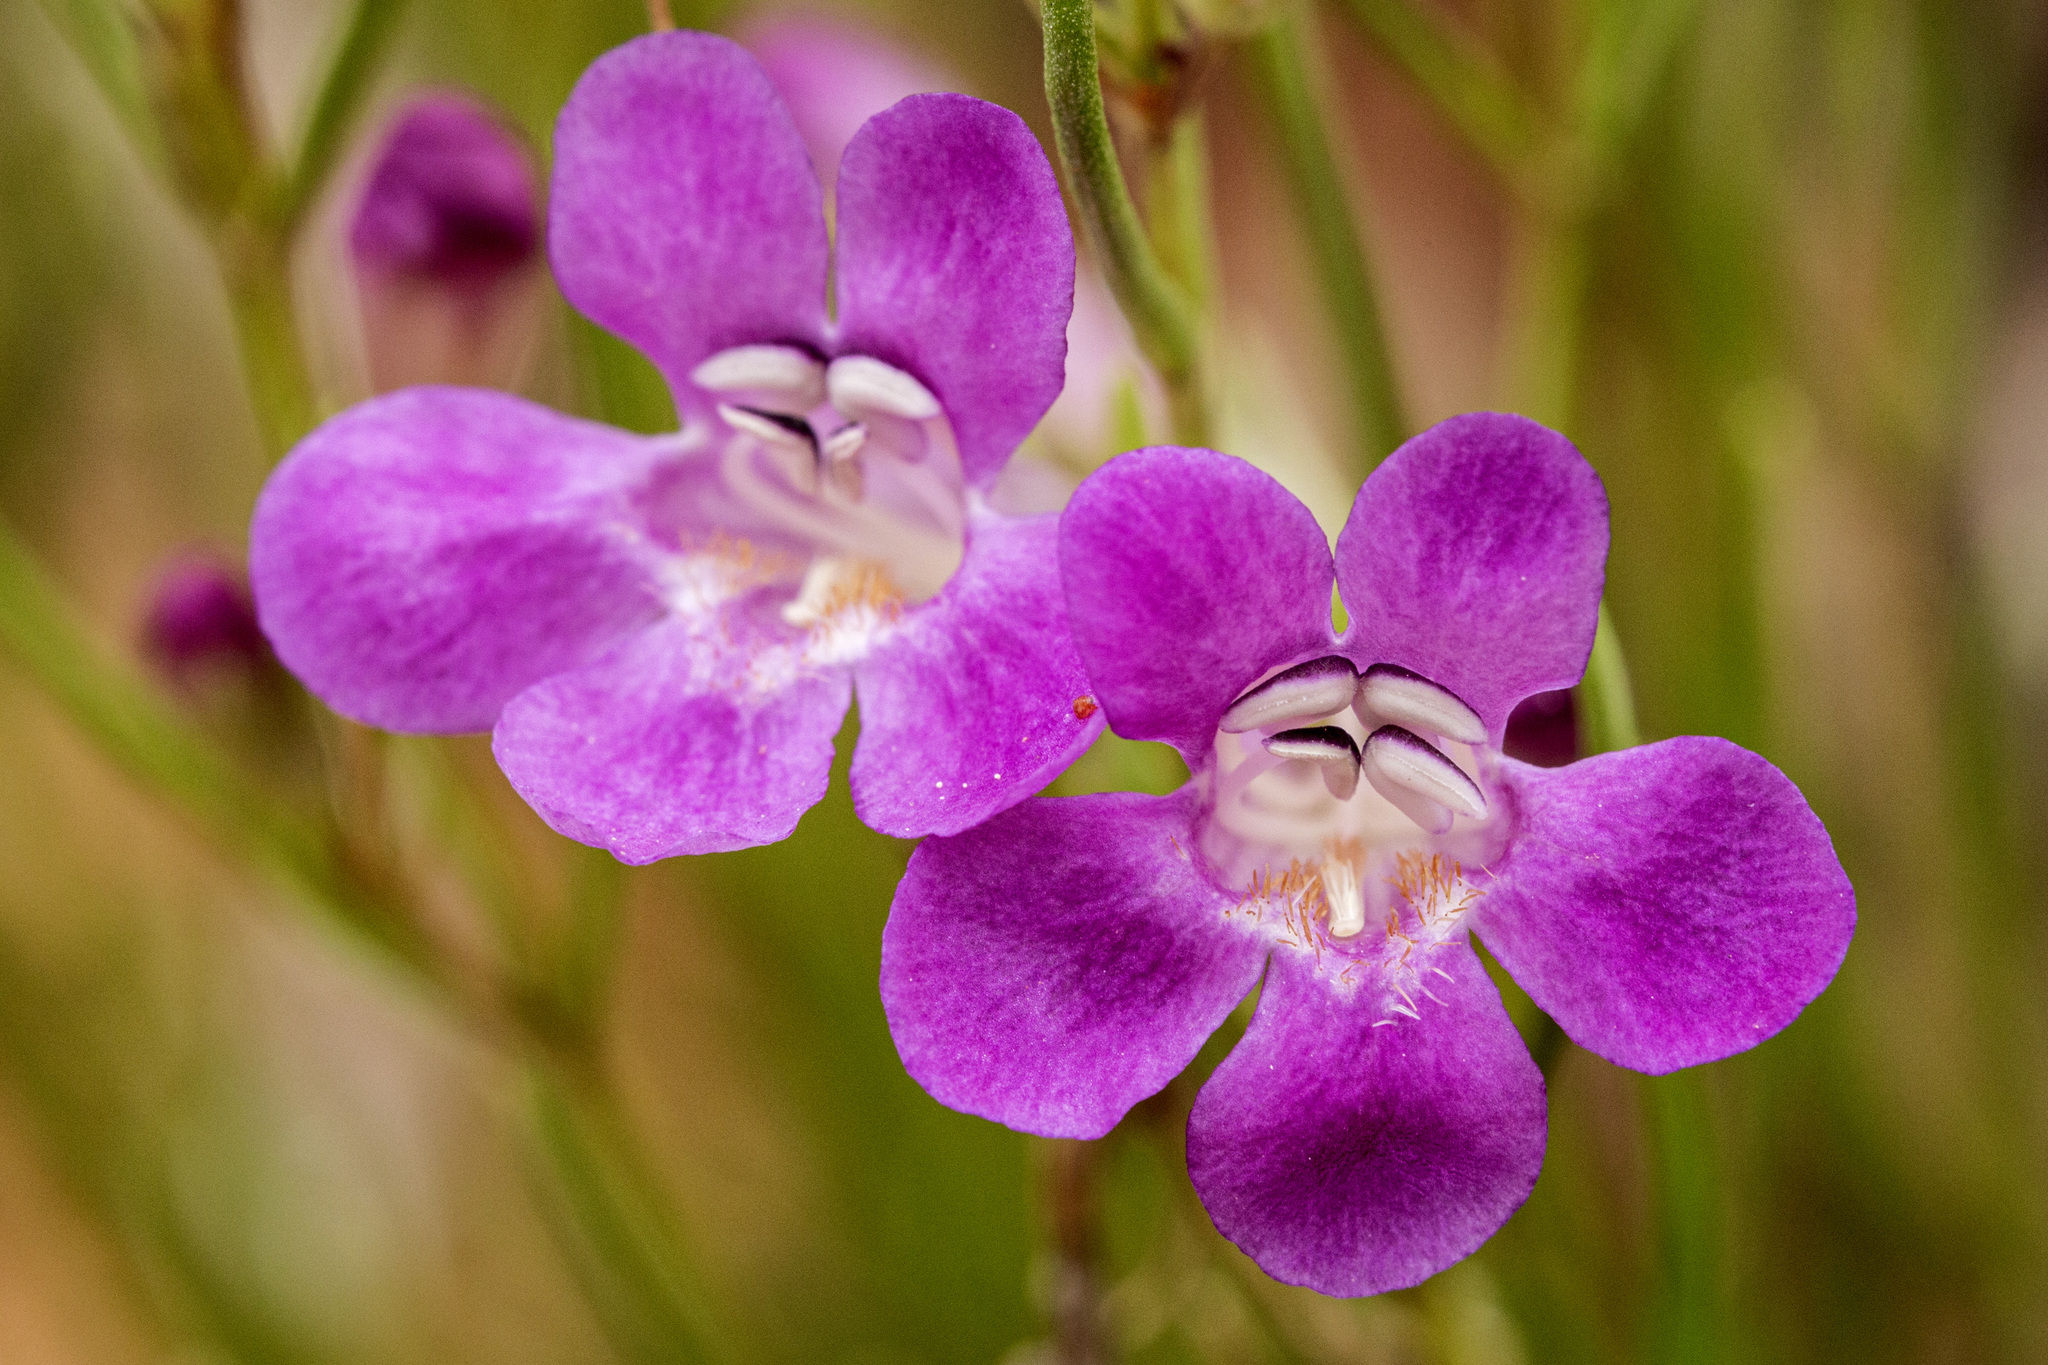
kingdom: Plantae
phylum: Tracheophyta
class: Magnoliopsida
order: Lamiales
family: Plantaginaceae
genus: Penstemon
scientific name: Penstemon laricifolius
